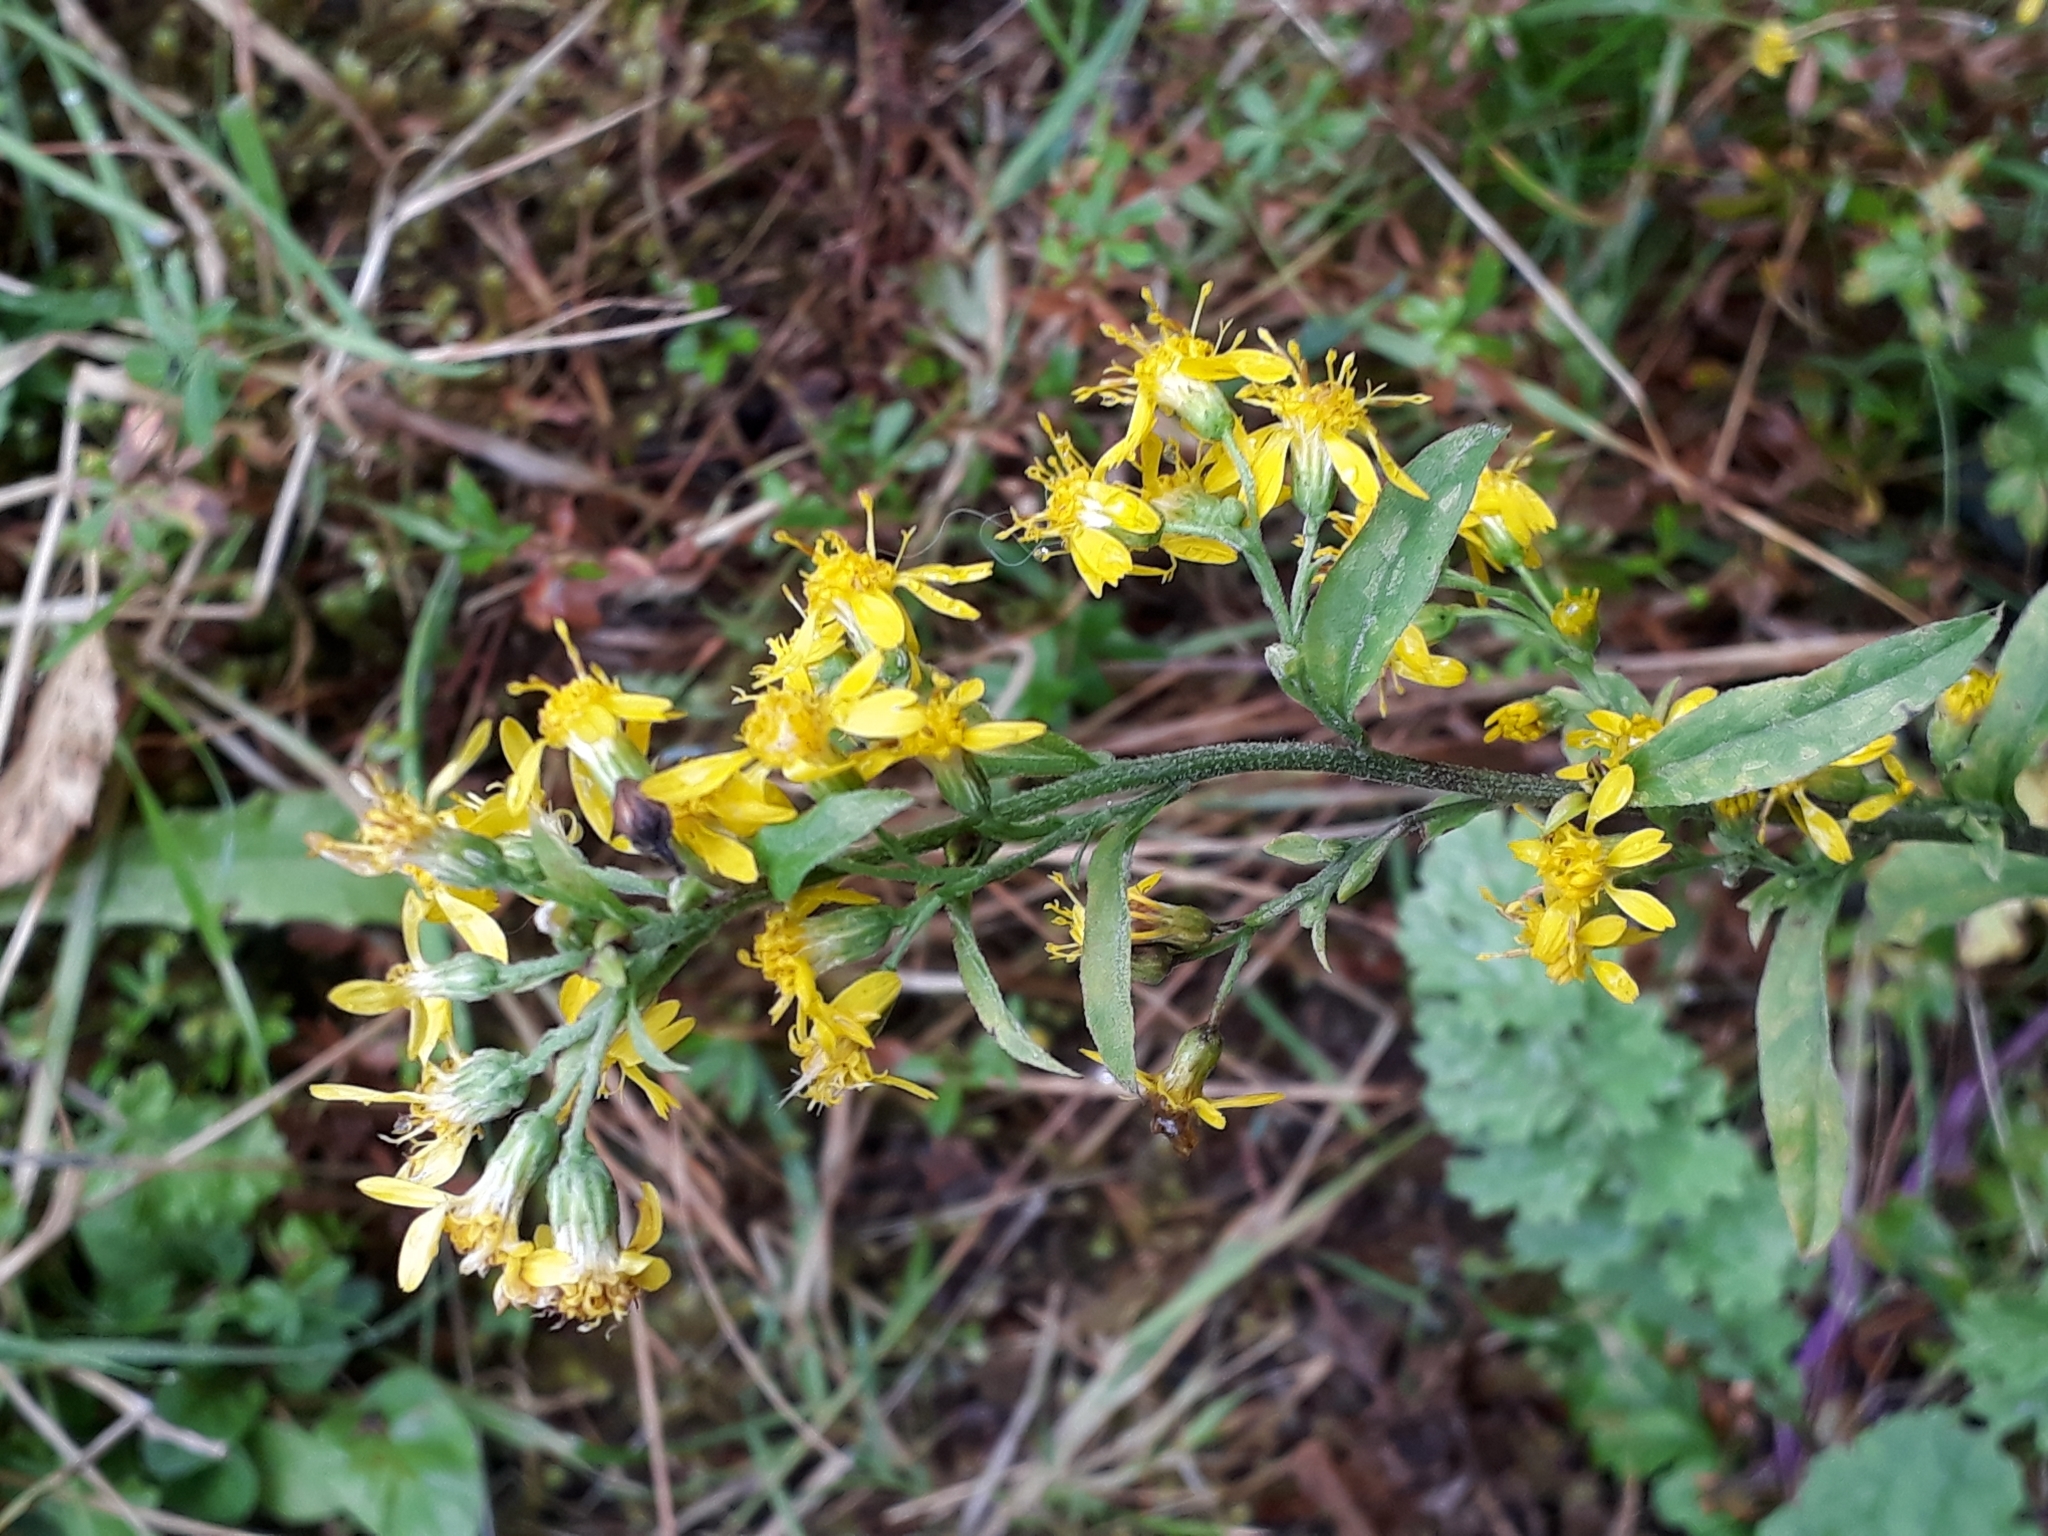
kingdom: Plantae
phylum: Tracheophyta
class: Magnoliopsida
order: Asterales
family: Asteraceae
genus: Solidago
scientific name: Solidago virgaurea
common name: Goldenrod
